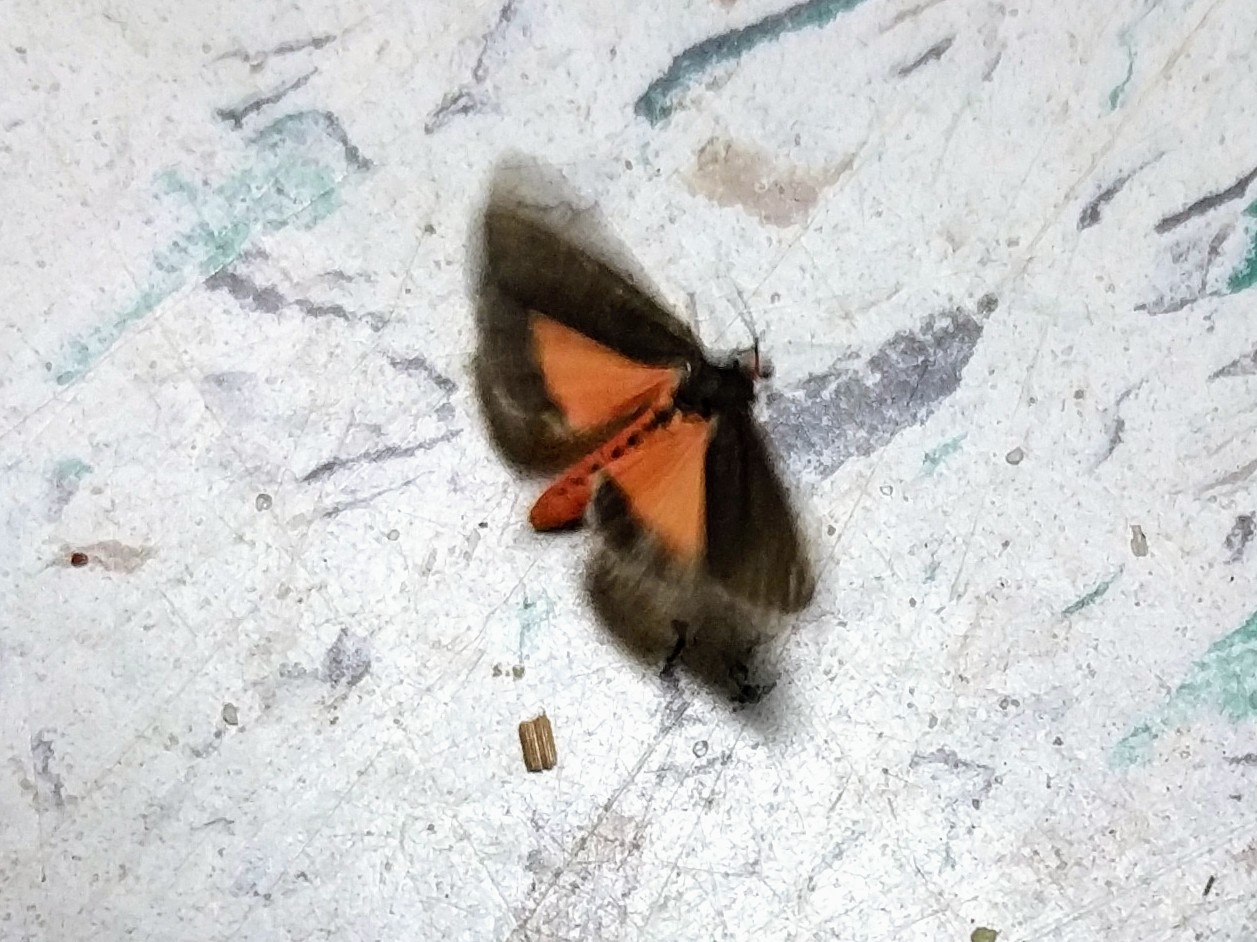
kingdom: Animalia
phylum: Arthropoda
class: Insecta
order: Lepidoptera
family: Erebidae
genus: Virbia
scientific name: Virbia laeta
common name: Joyful holomelina moth
